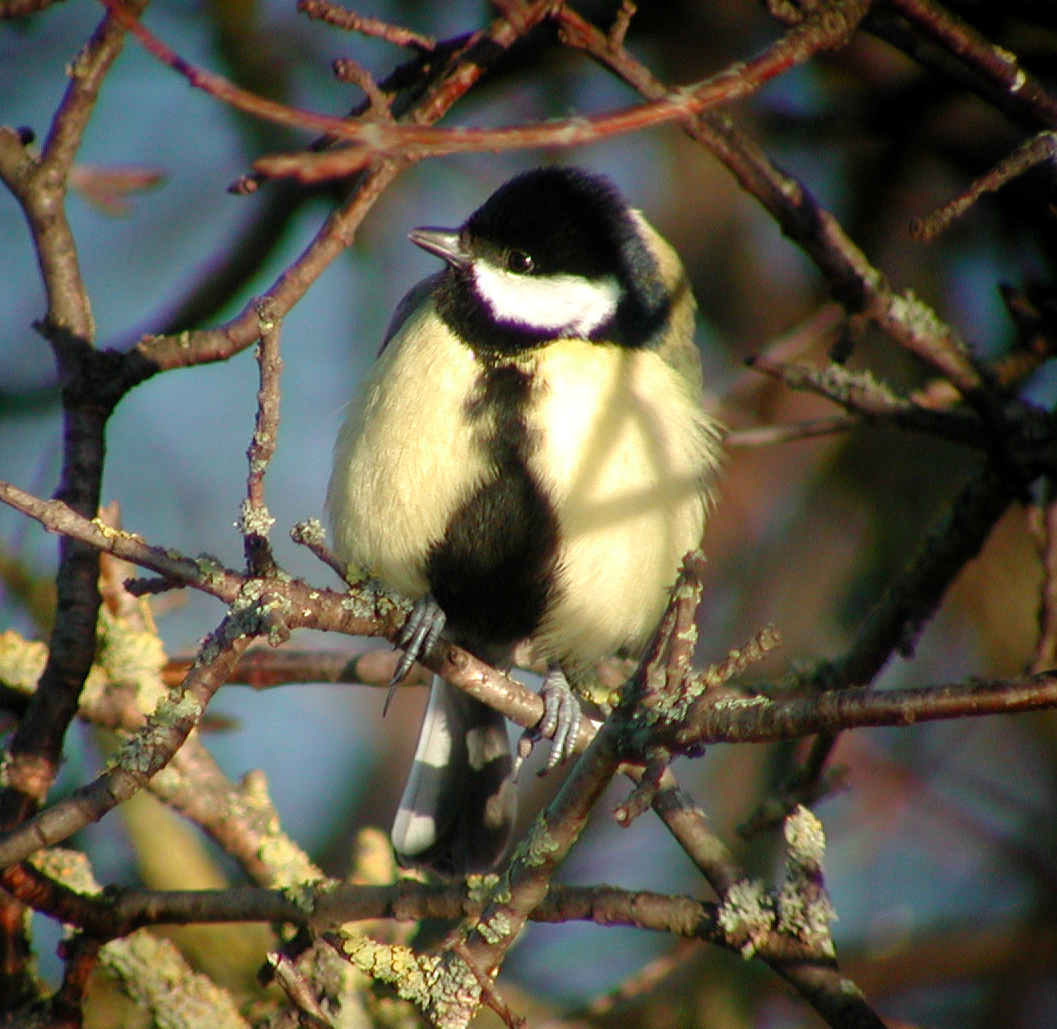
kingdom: Animalia
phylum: Chordata
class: Aves
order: Passeriformes
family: Paridae
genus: Parus
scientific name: Parus major
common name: Great tit
